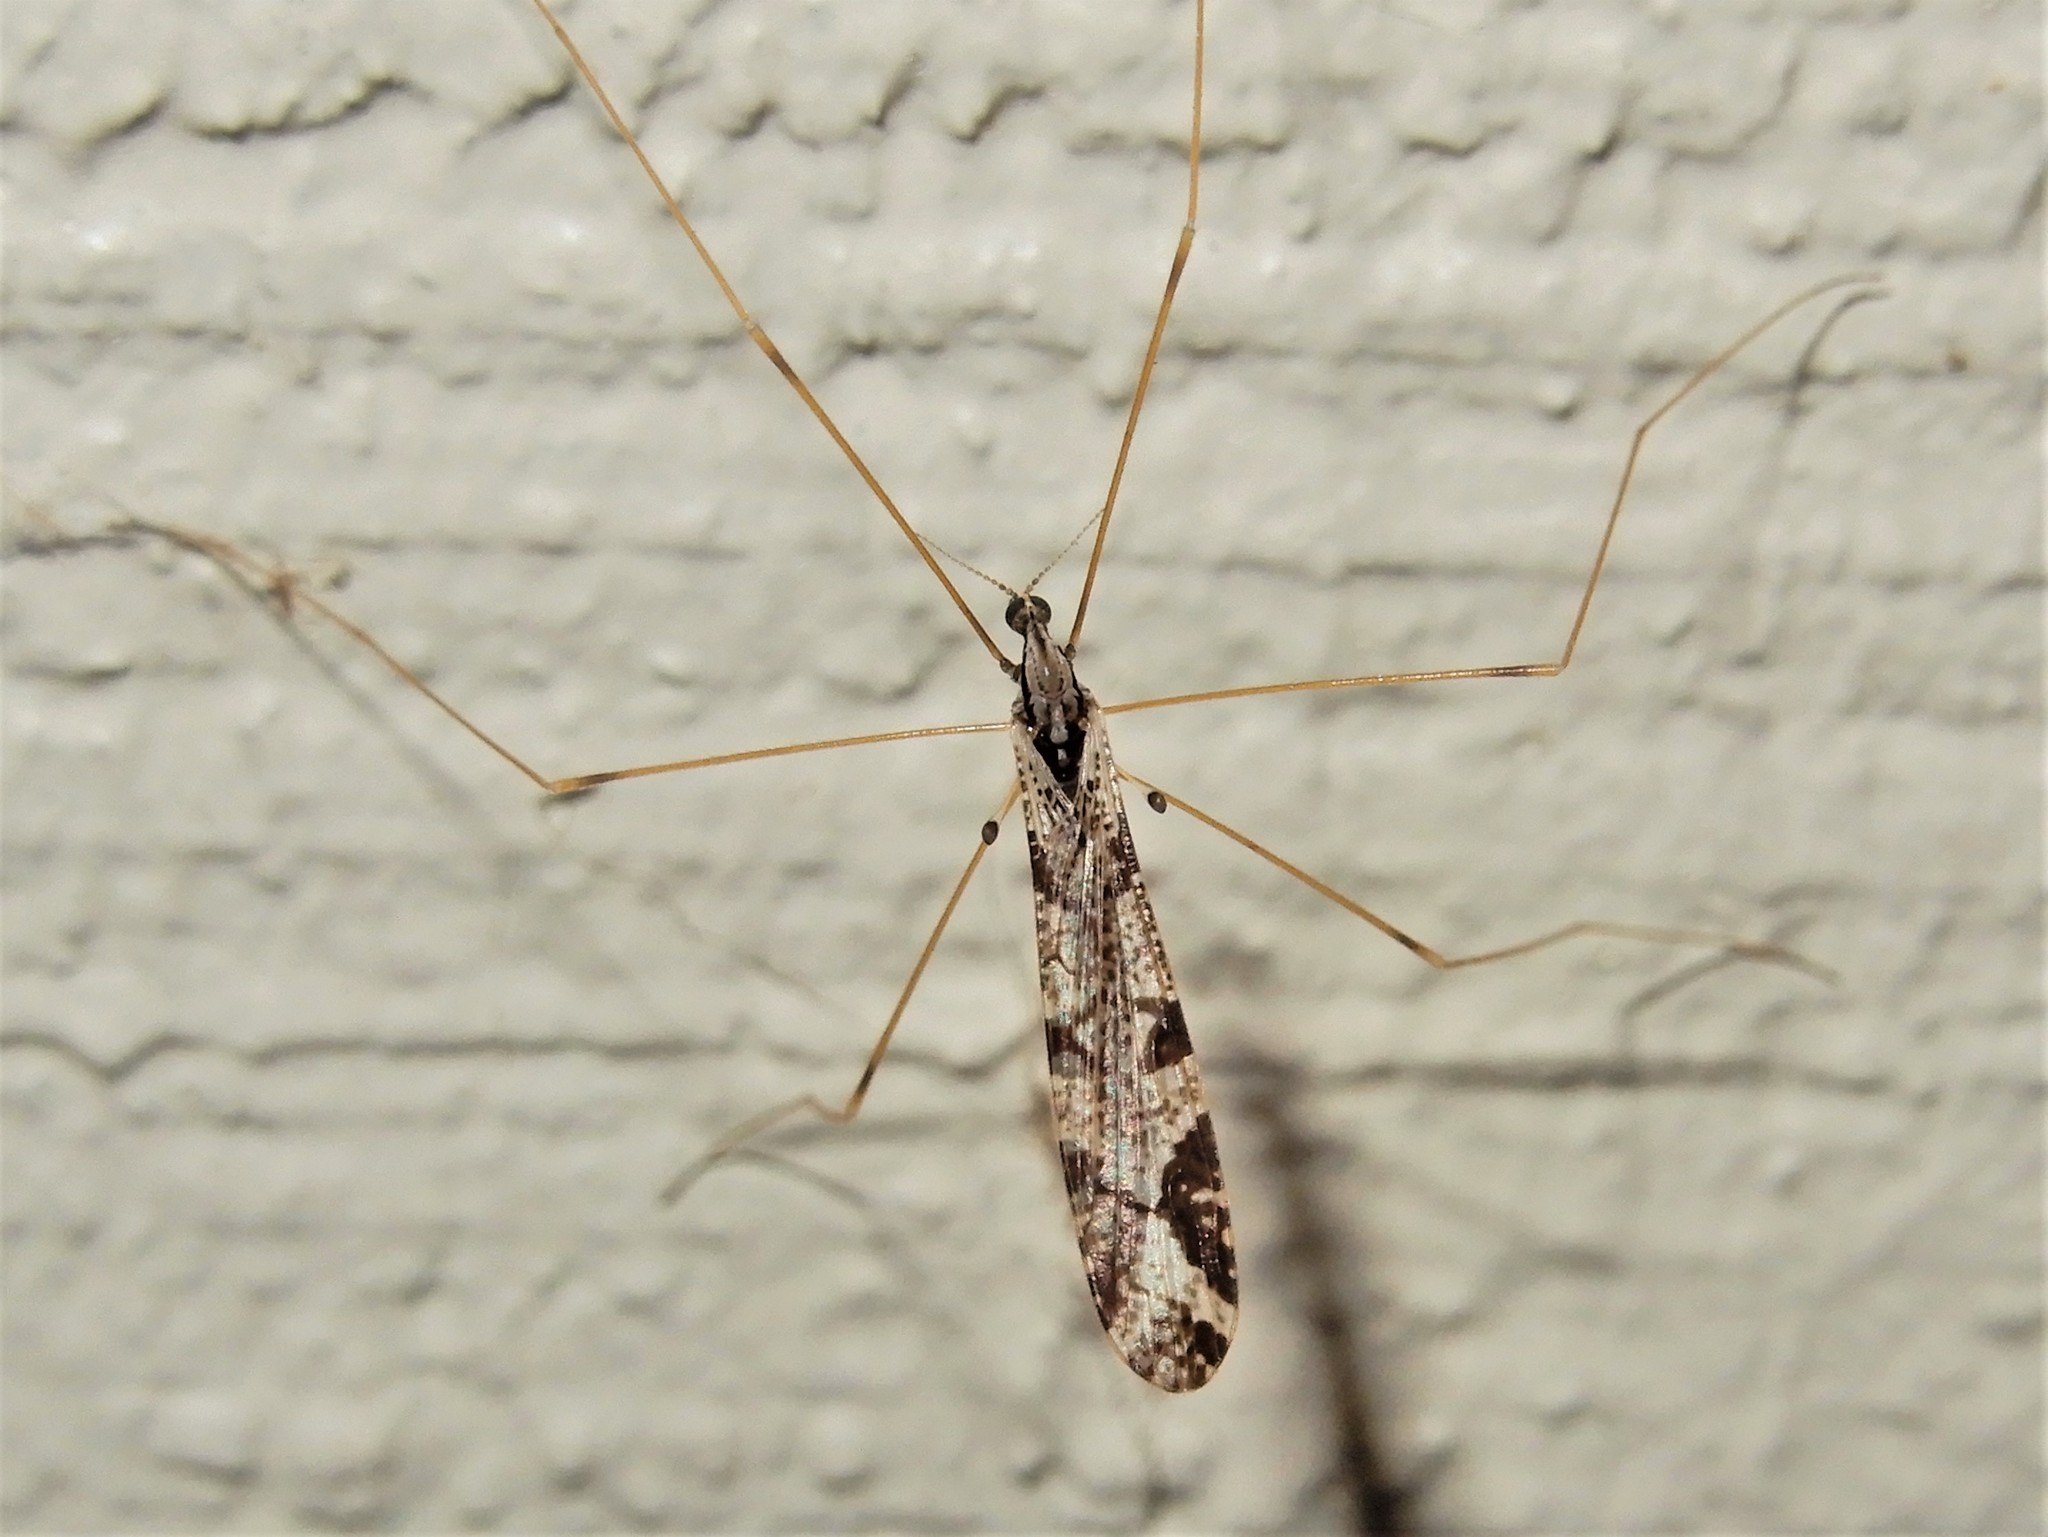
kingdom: Animalia
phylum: Arthropoda
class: Insecta
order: Diptera
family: Limoniidae
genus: Discobola
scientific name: Discobola striata
